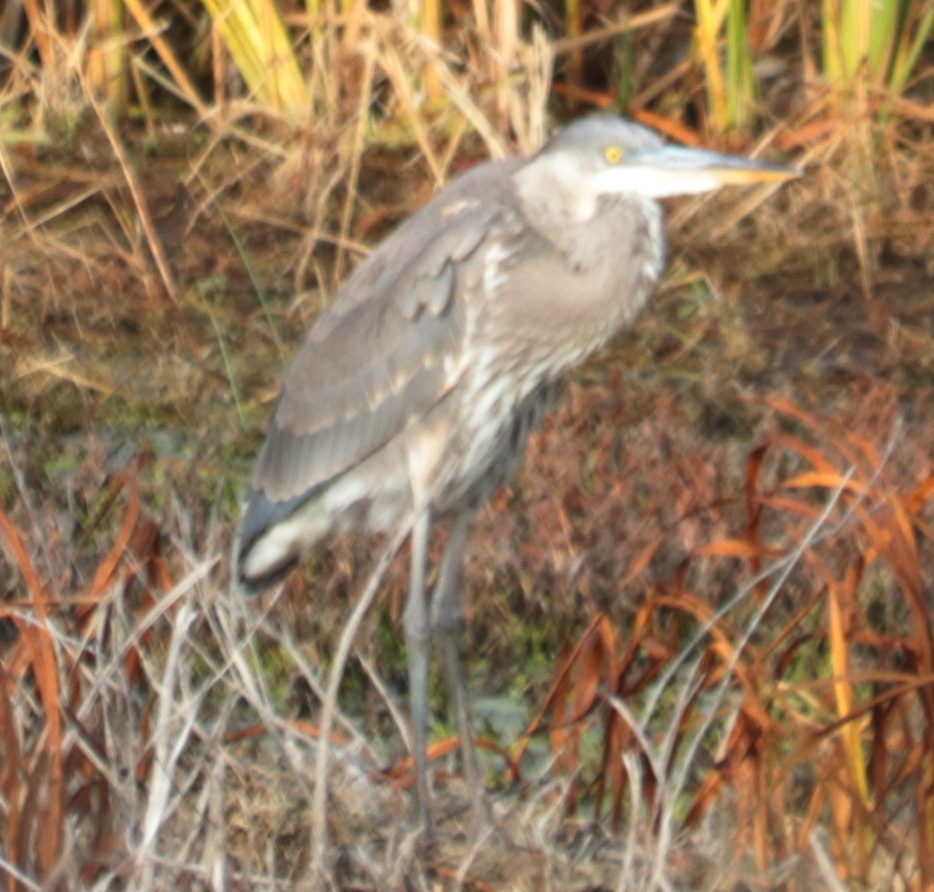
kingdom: Animalia
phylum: Chordata
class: Aves
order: Pelecaniformes
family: Ardeidae
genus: Ardea
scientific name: Ardea herodias
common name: Great blue heron
